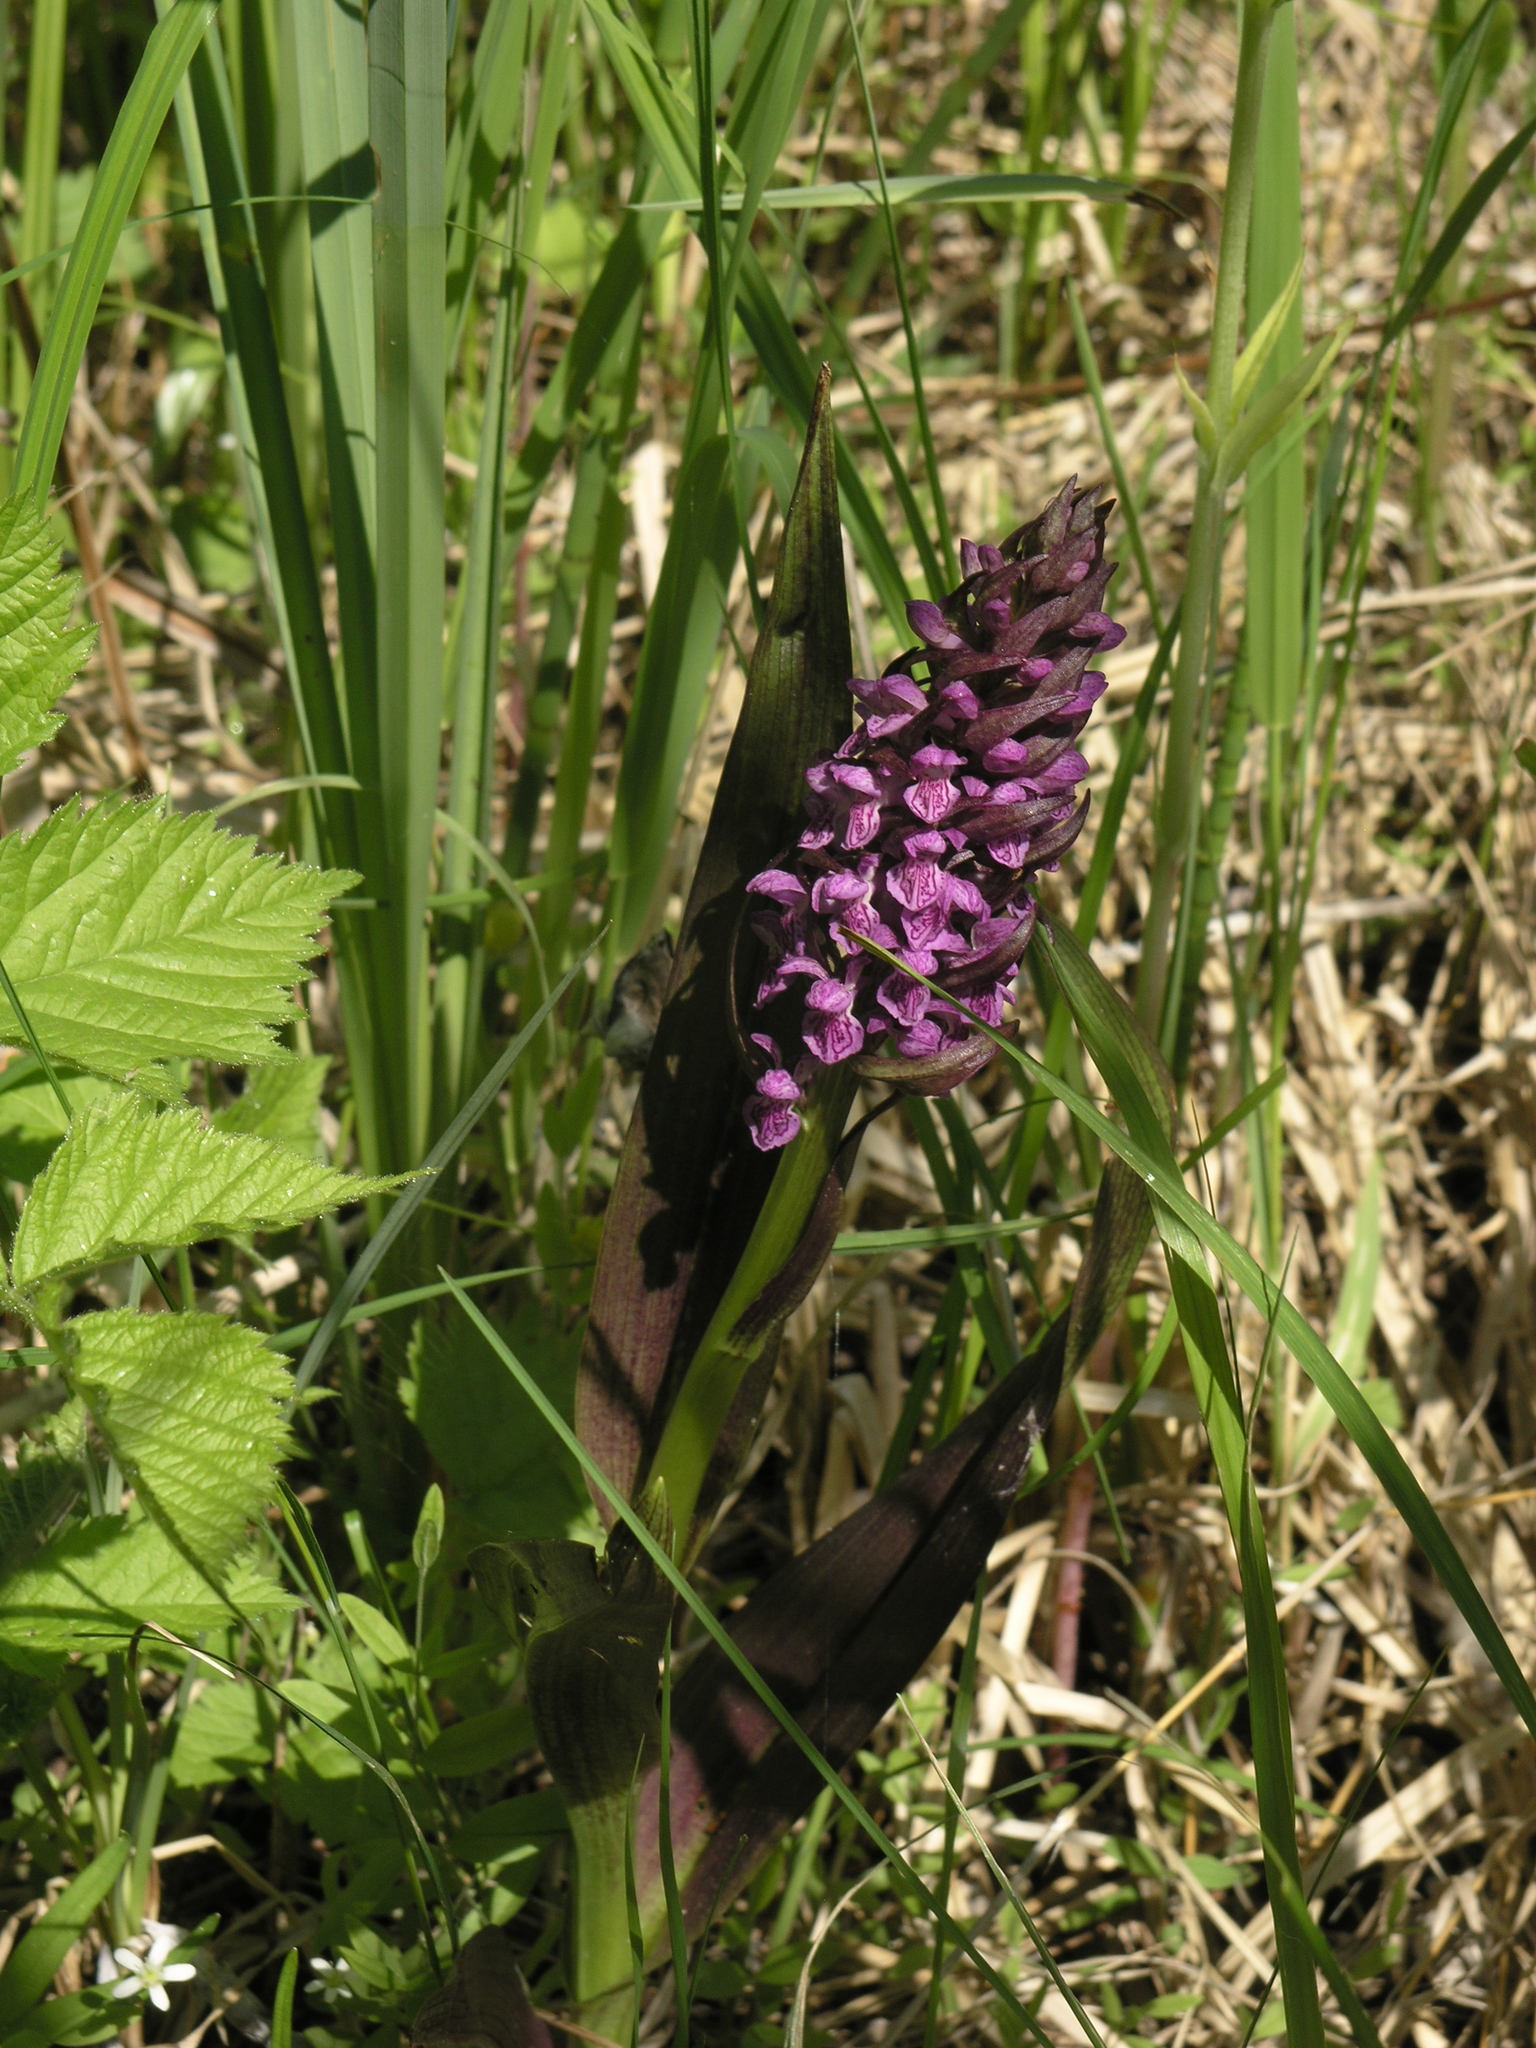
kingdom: Plantae
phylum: Tracheophyta
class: Liliopsida
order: Asparagales
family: Orchidaceae
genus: Dactylorhiza
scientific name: Dactylorhiza incarnata
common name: Early marsh-orchid
